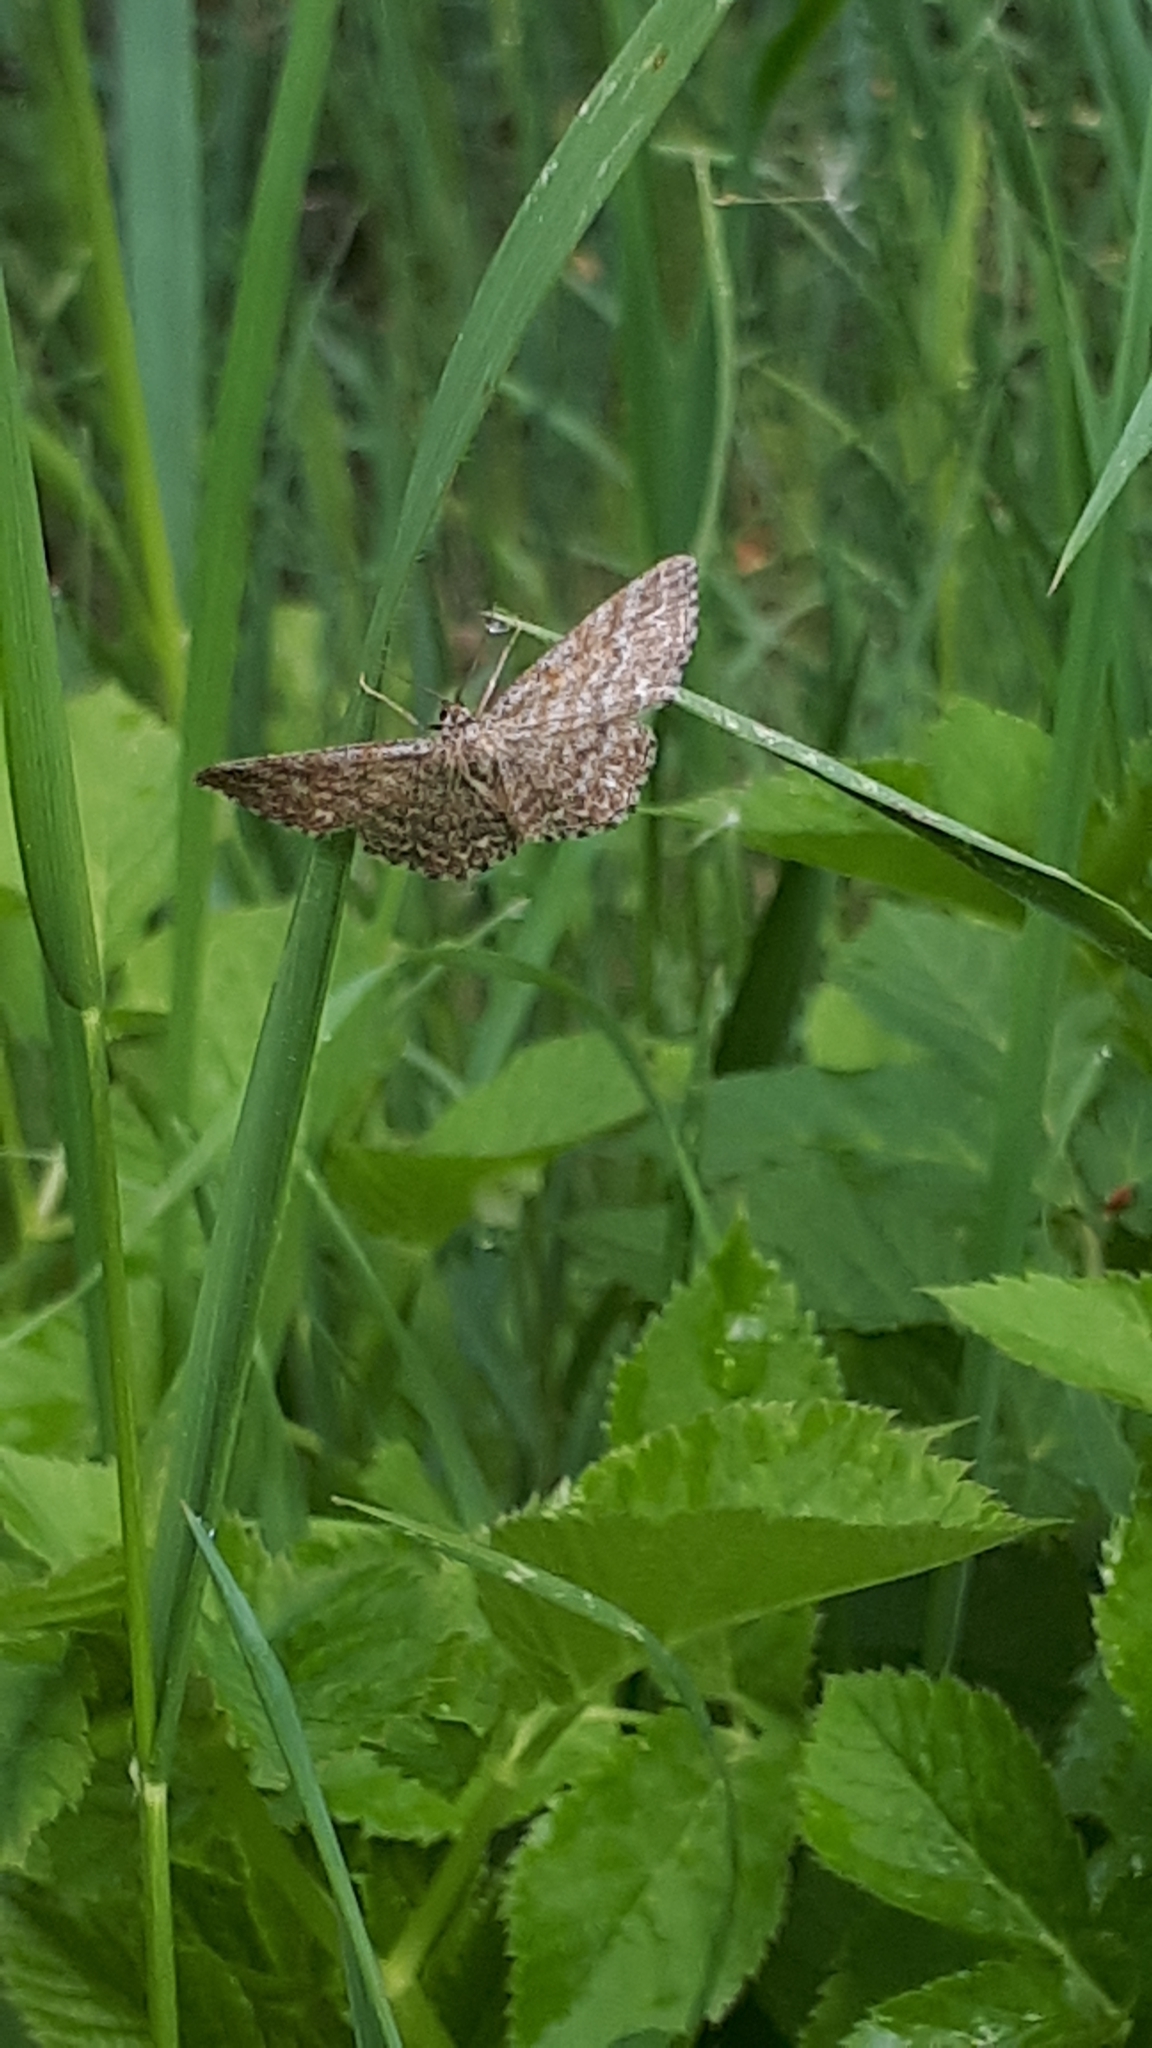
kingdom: Animalia
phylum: Arthropoda
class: Insecta
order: Lepidoptera
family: Geometridae
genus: Scopula
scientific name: Scopula immorata
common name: Lewes wave
